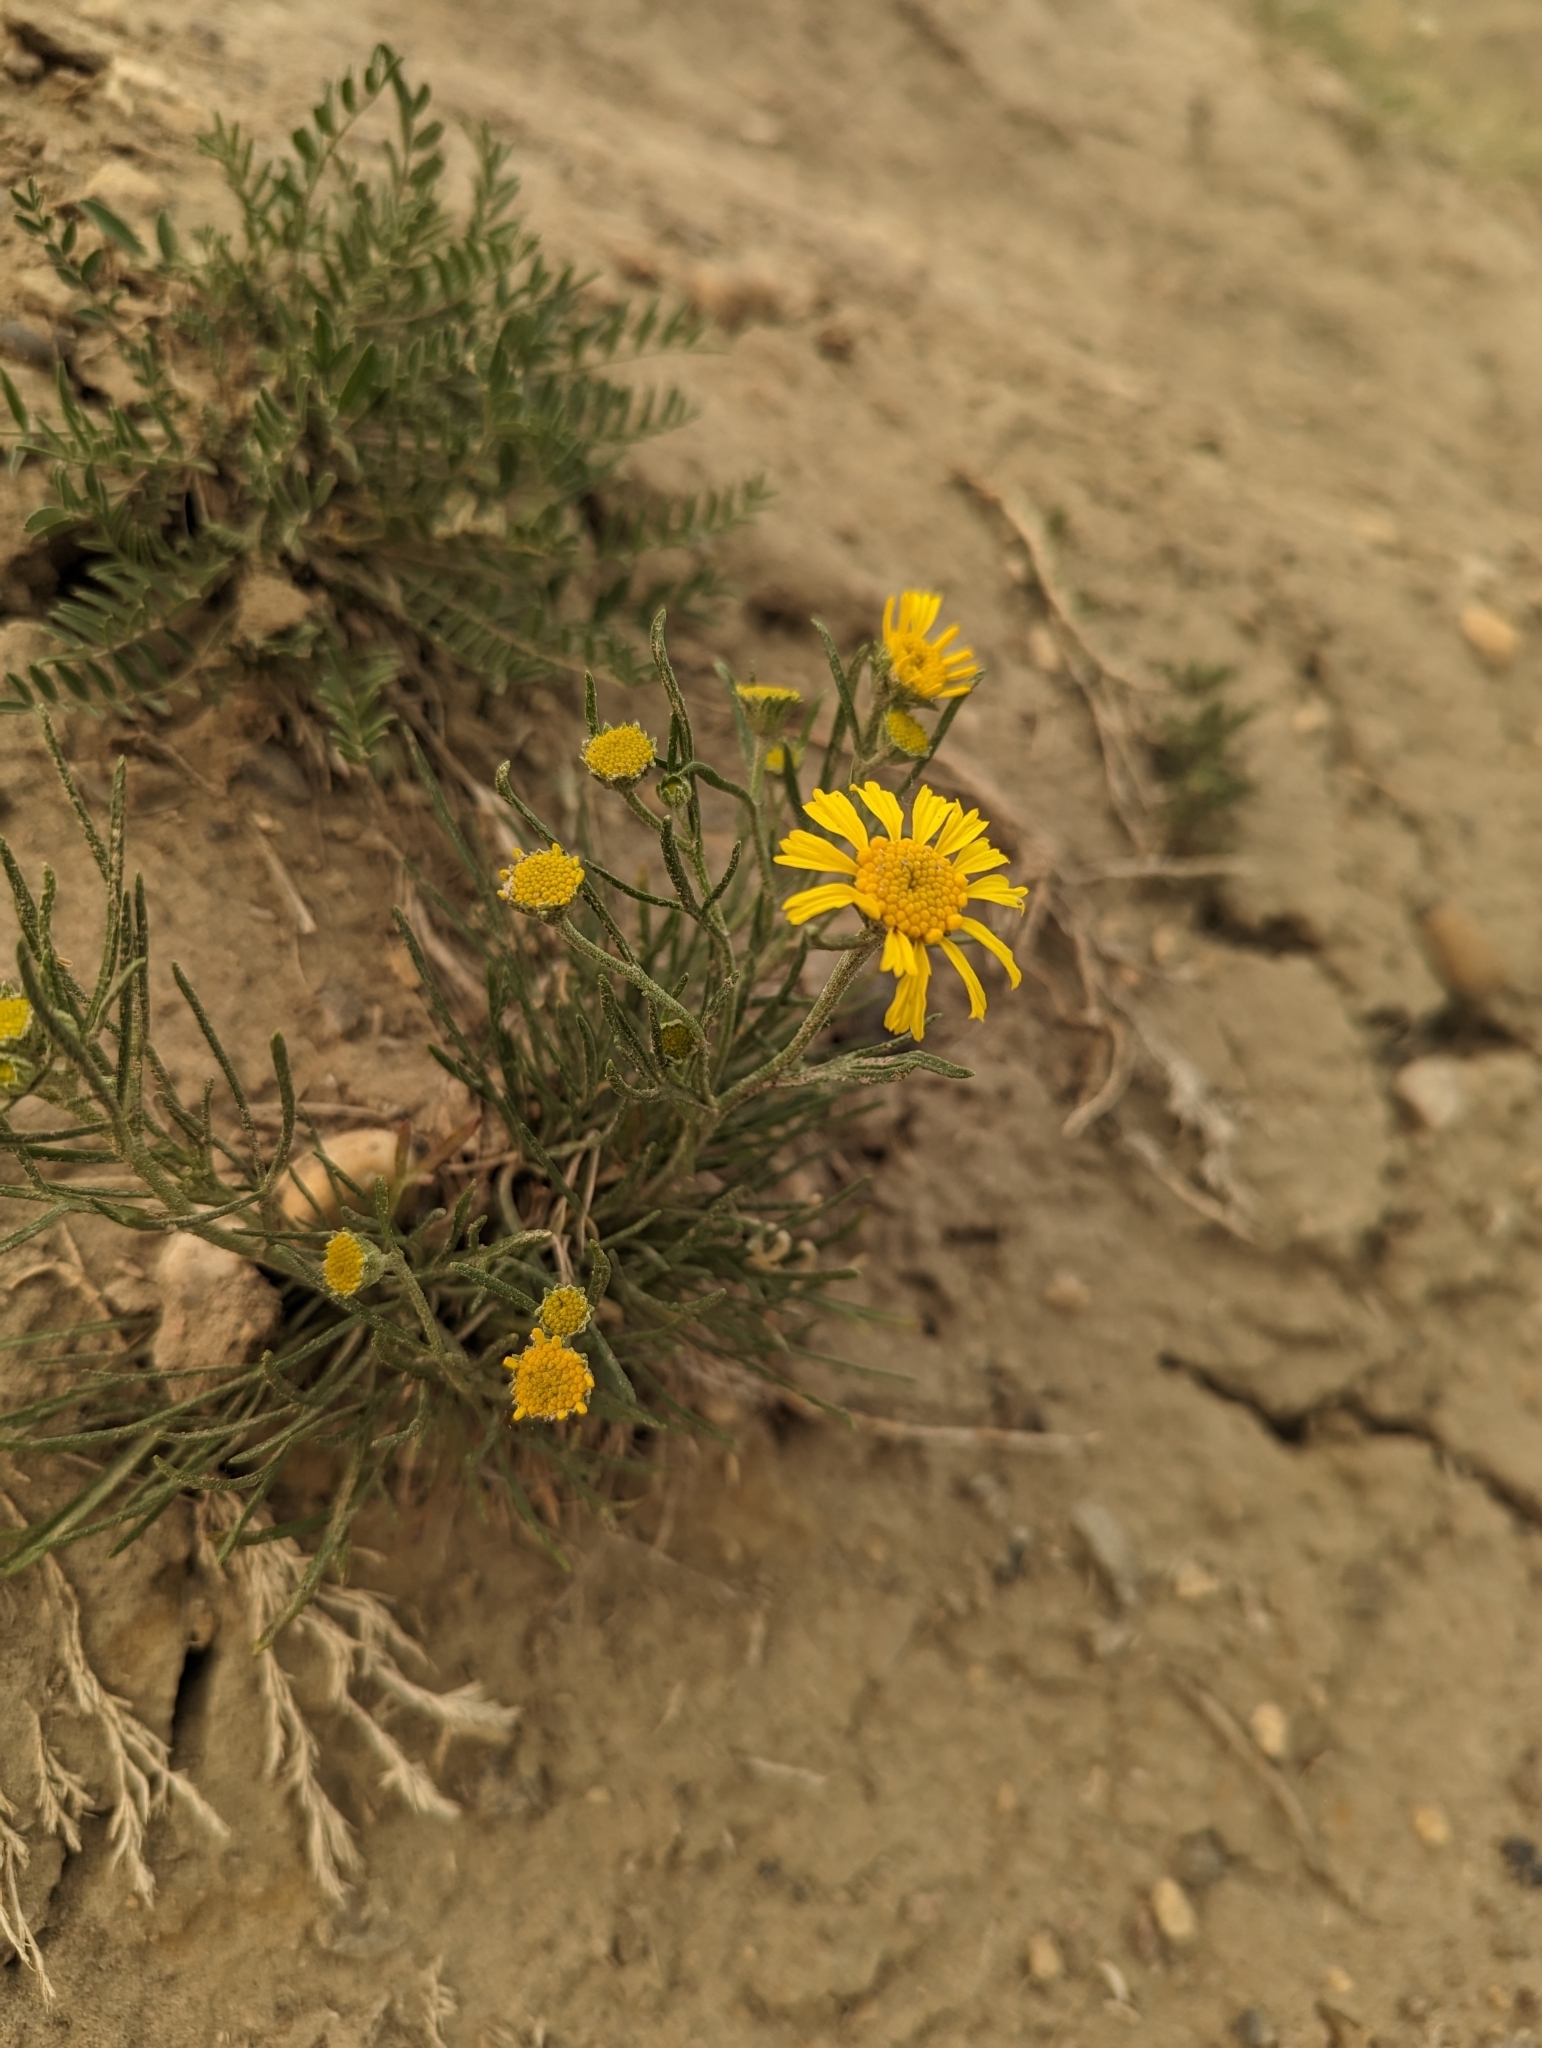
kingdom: Plantae
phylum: Tracheophyta
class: Magnoliopsida
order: Asterales
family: Asteraceae
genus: Hymenoxys
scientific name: Hymenoxys richardsonii
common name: Pingue rubberweed
